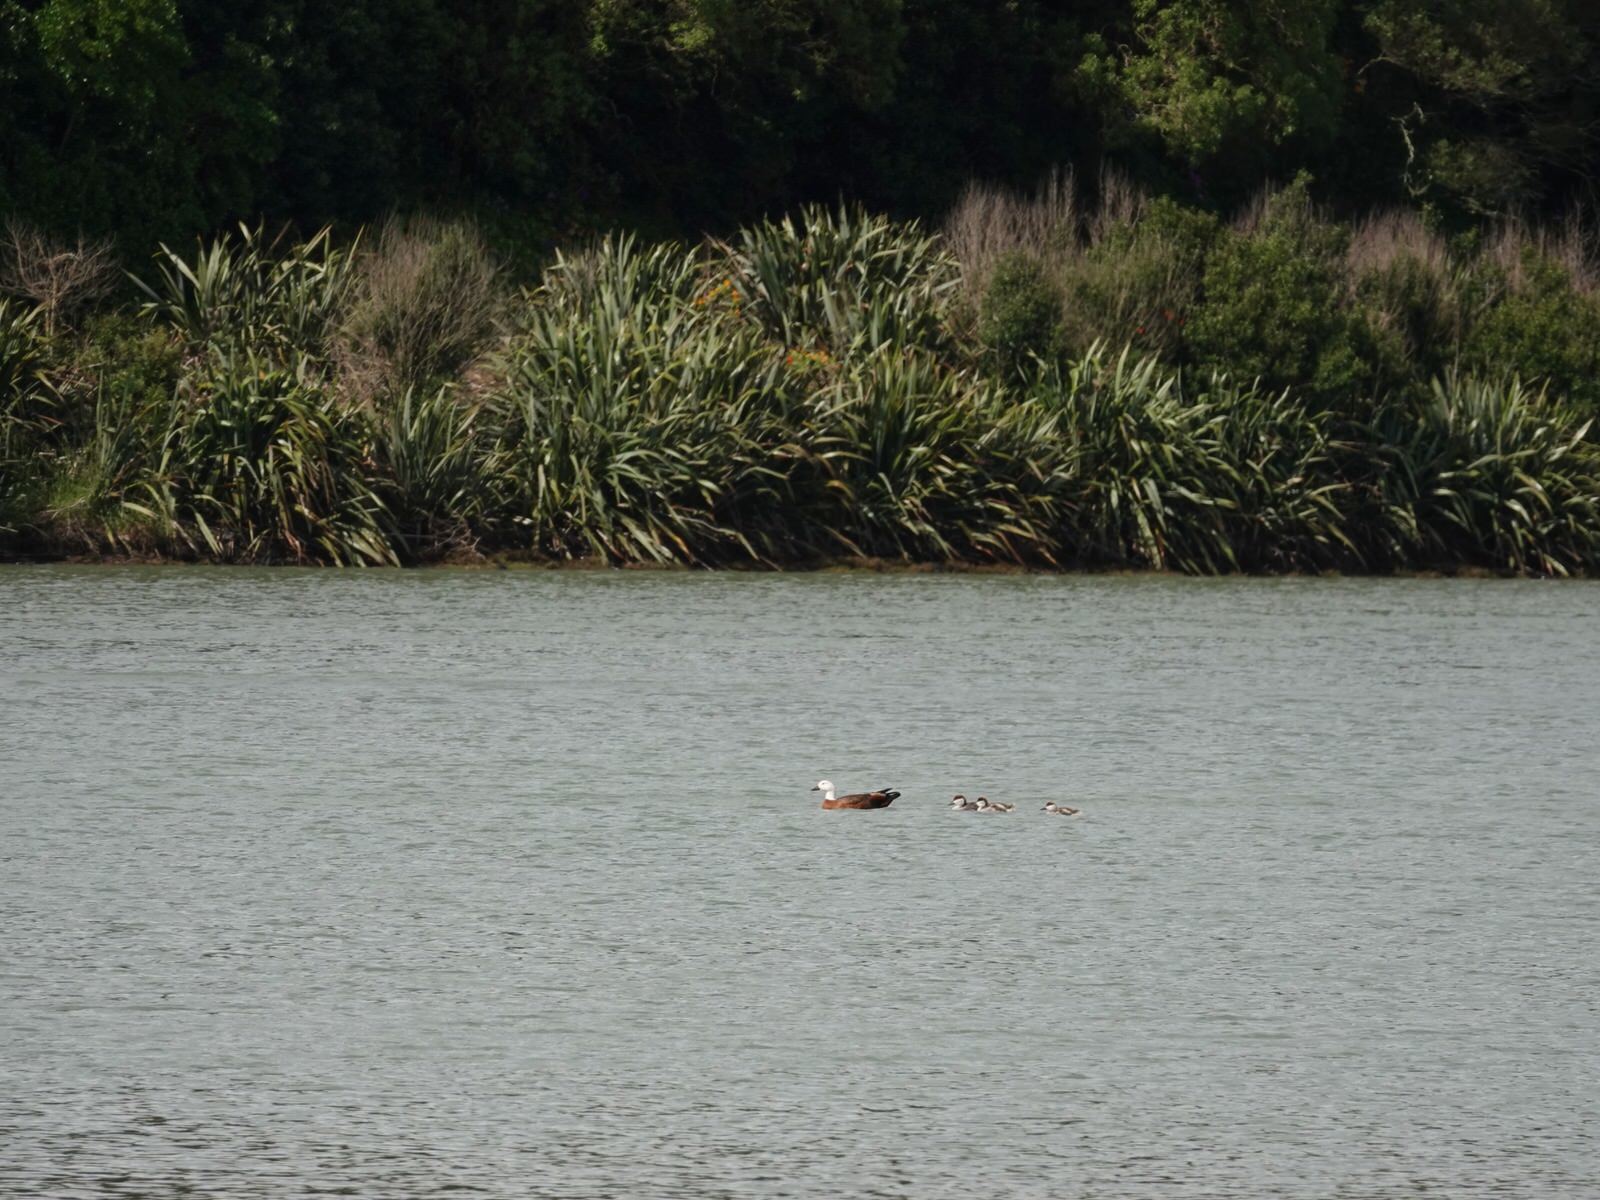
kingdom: Animalia
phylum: Chordata
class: Aves
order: Anseriformes
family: Anatidae
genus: Tadorna
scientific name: Tadorna variegata
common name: Paradise shelduck
